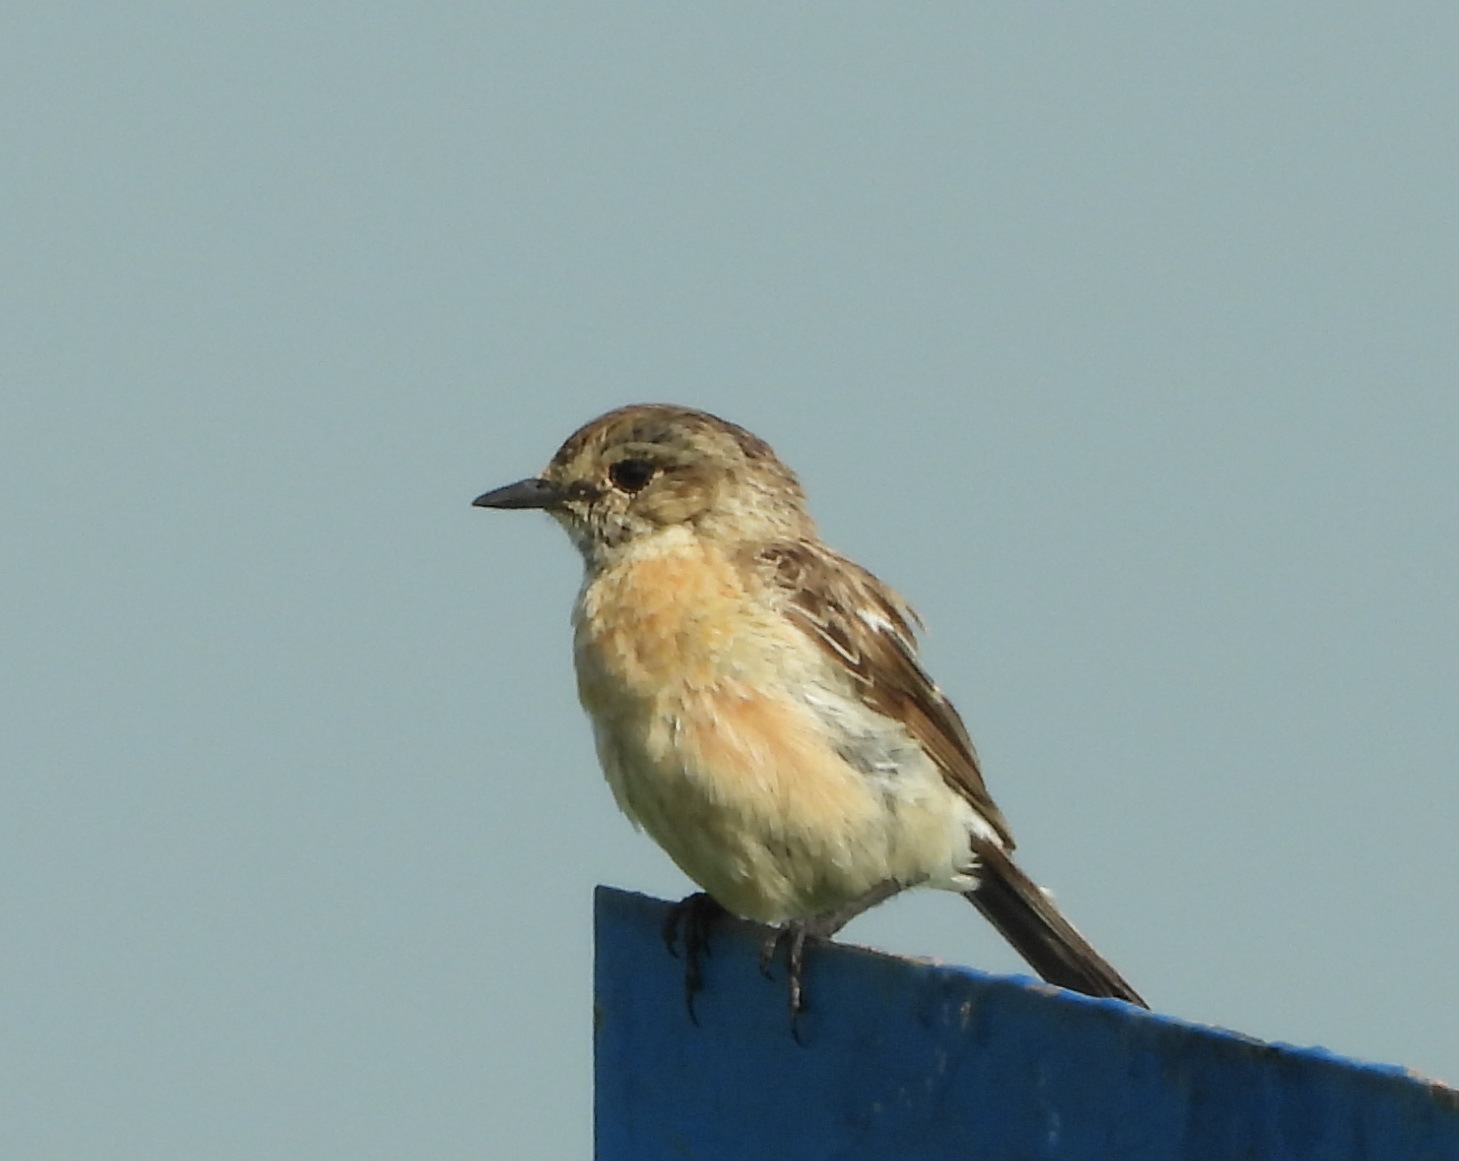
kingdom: Animalia
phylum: Chordata
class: Aves
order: Passeriformes
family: Muscicapidae
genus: Saxicola
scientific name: Saxicola maurus
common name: Siberian stonechat
